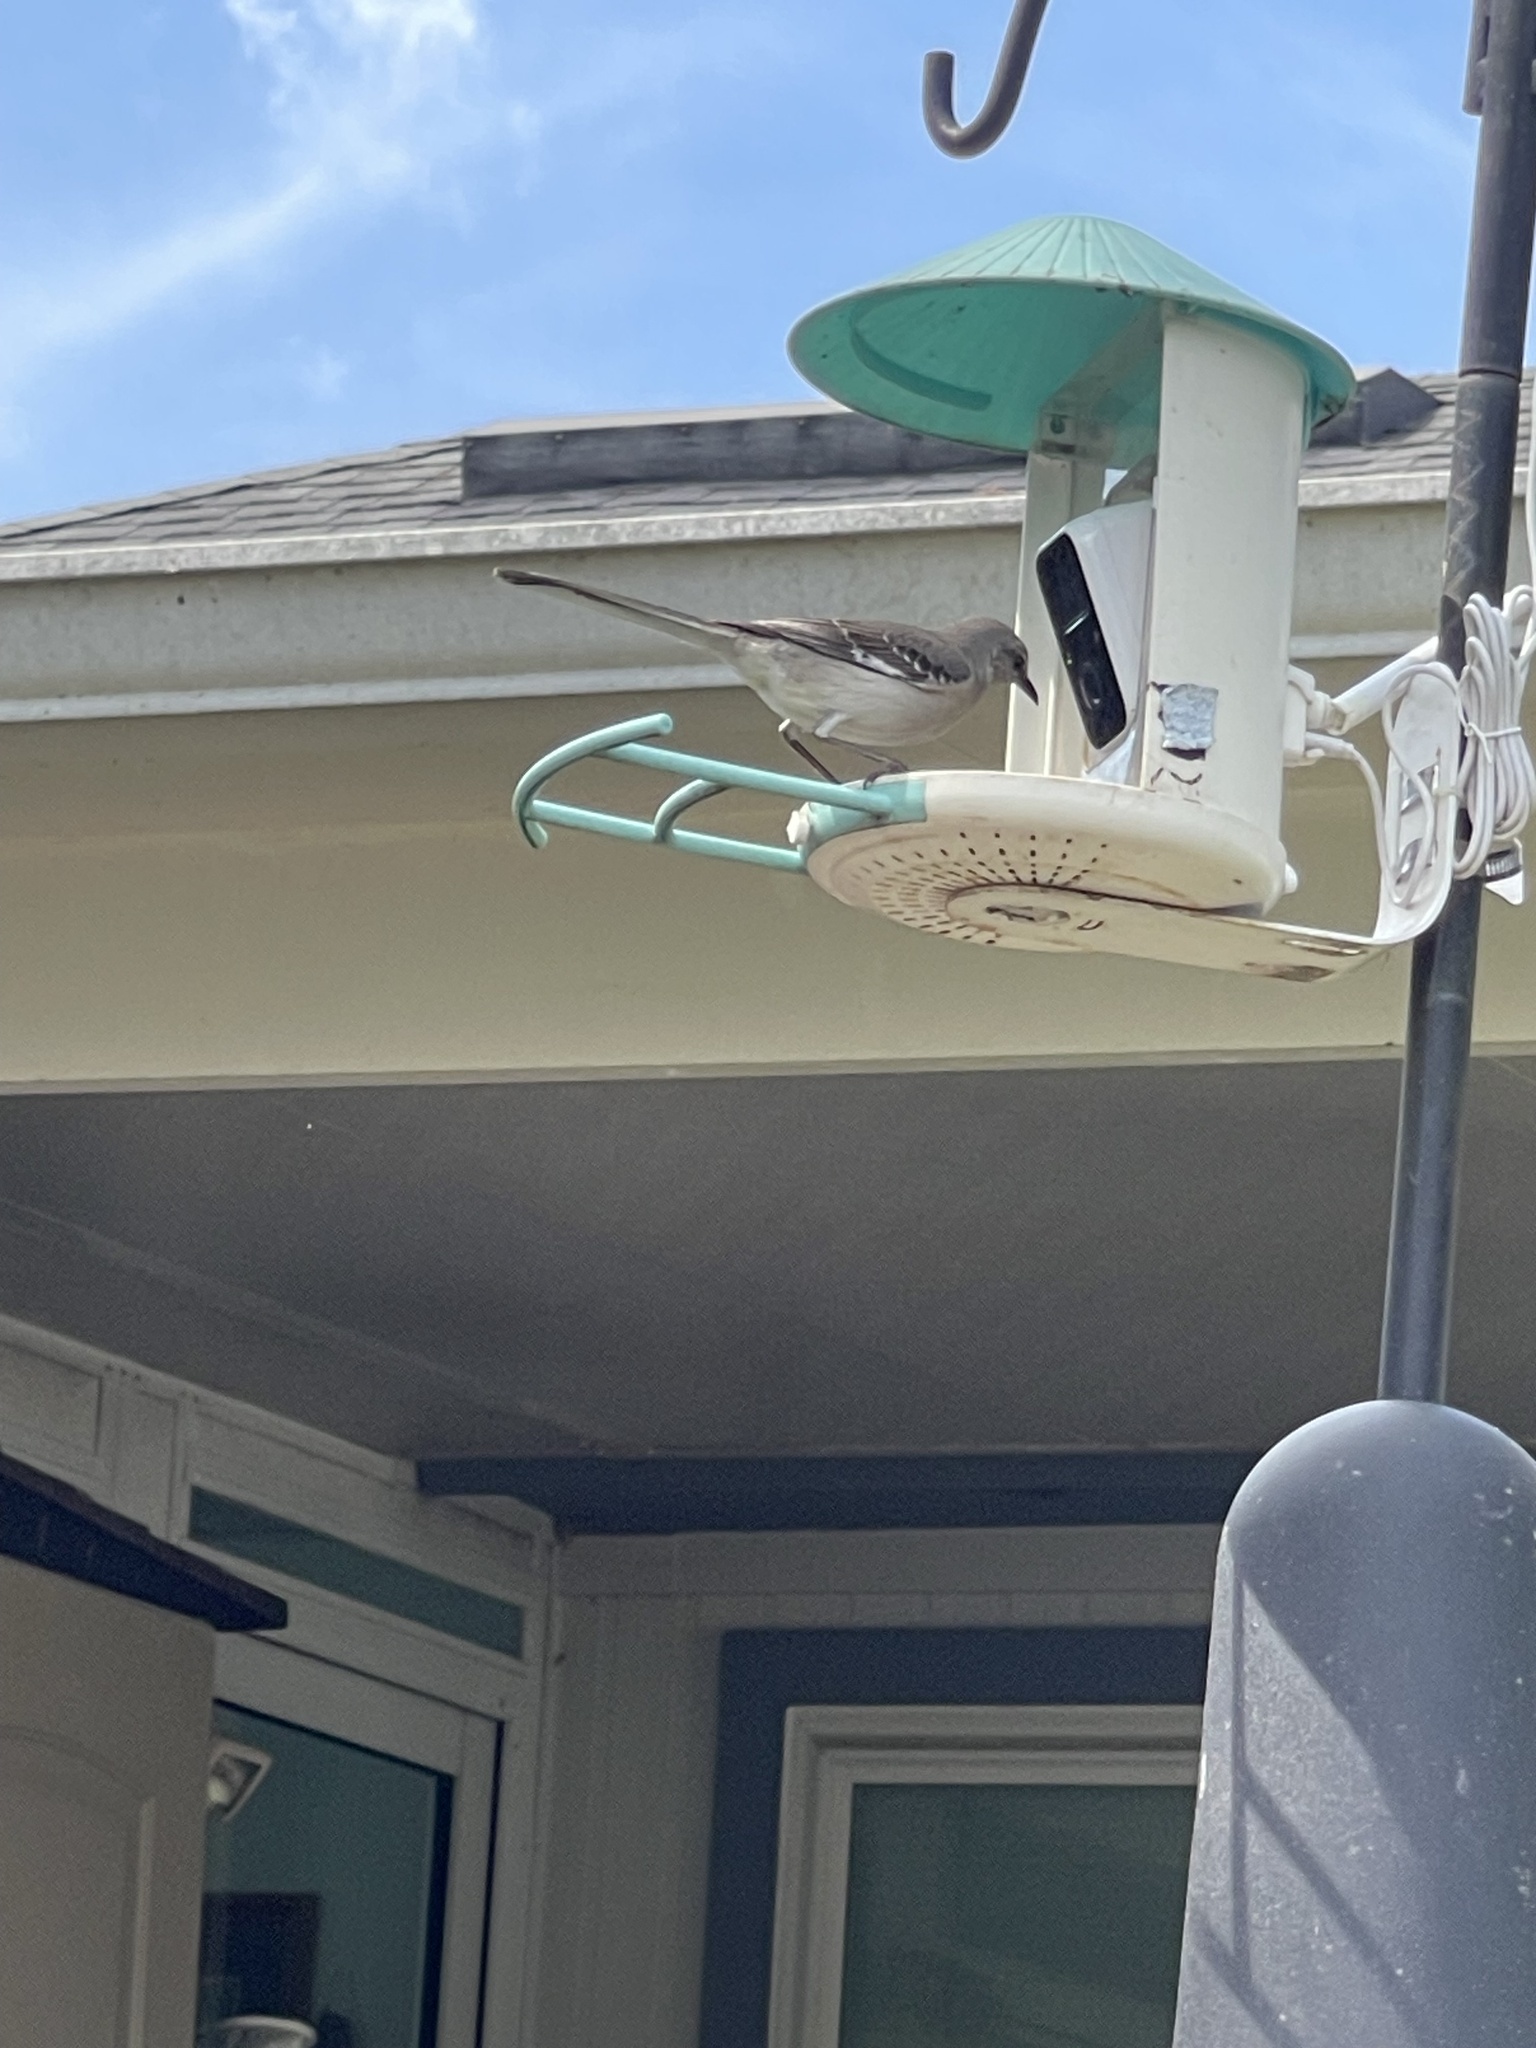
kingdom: Animalia
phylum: Chordata
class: Aves
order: Passeriformes
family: Mimidae
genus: Mimus
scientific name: Mimus polyglottos
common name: Northern mockingbird
